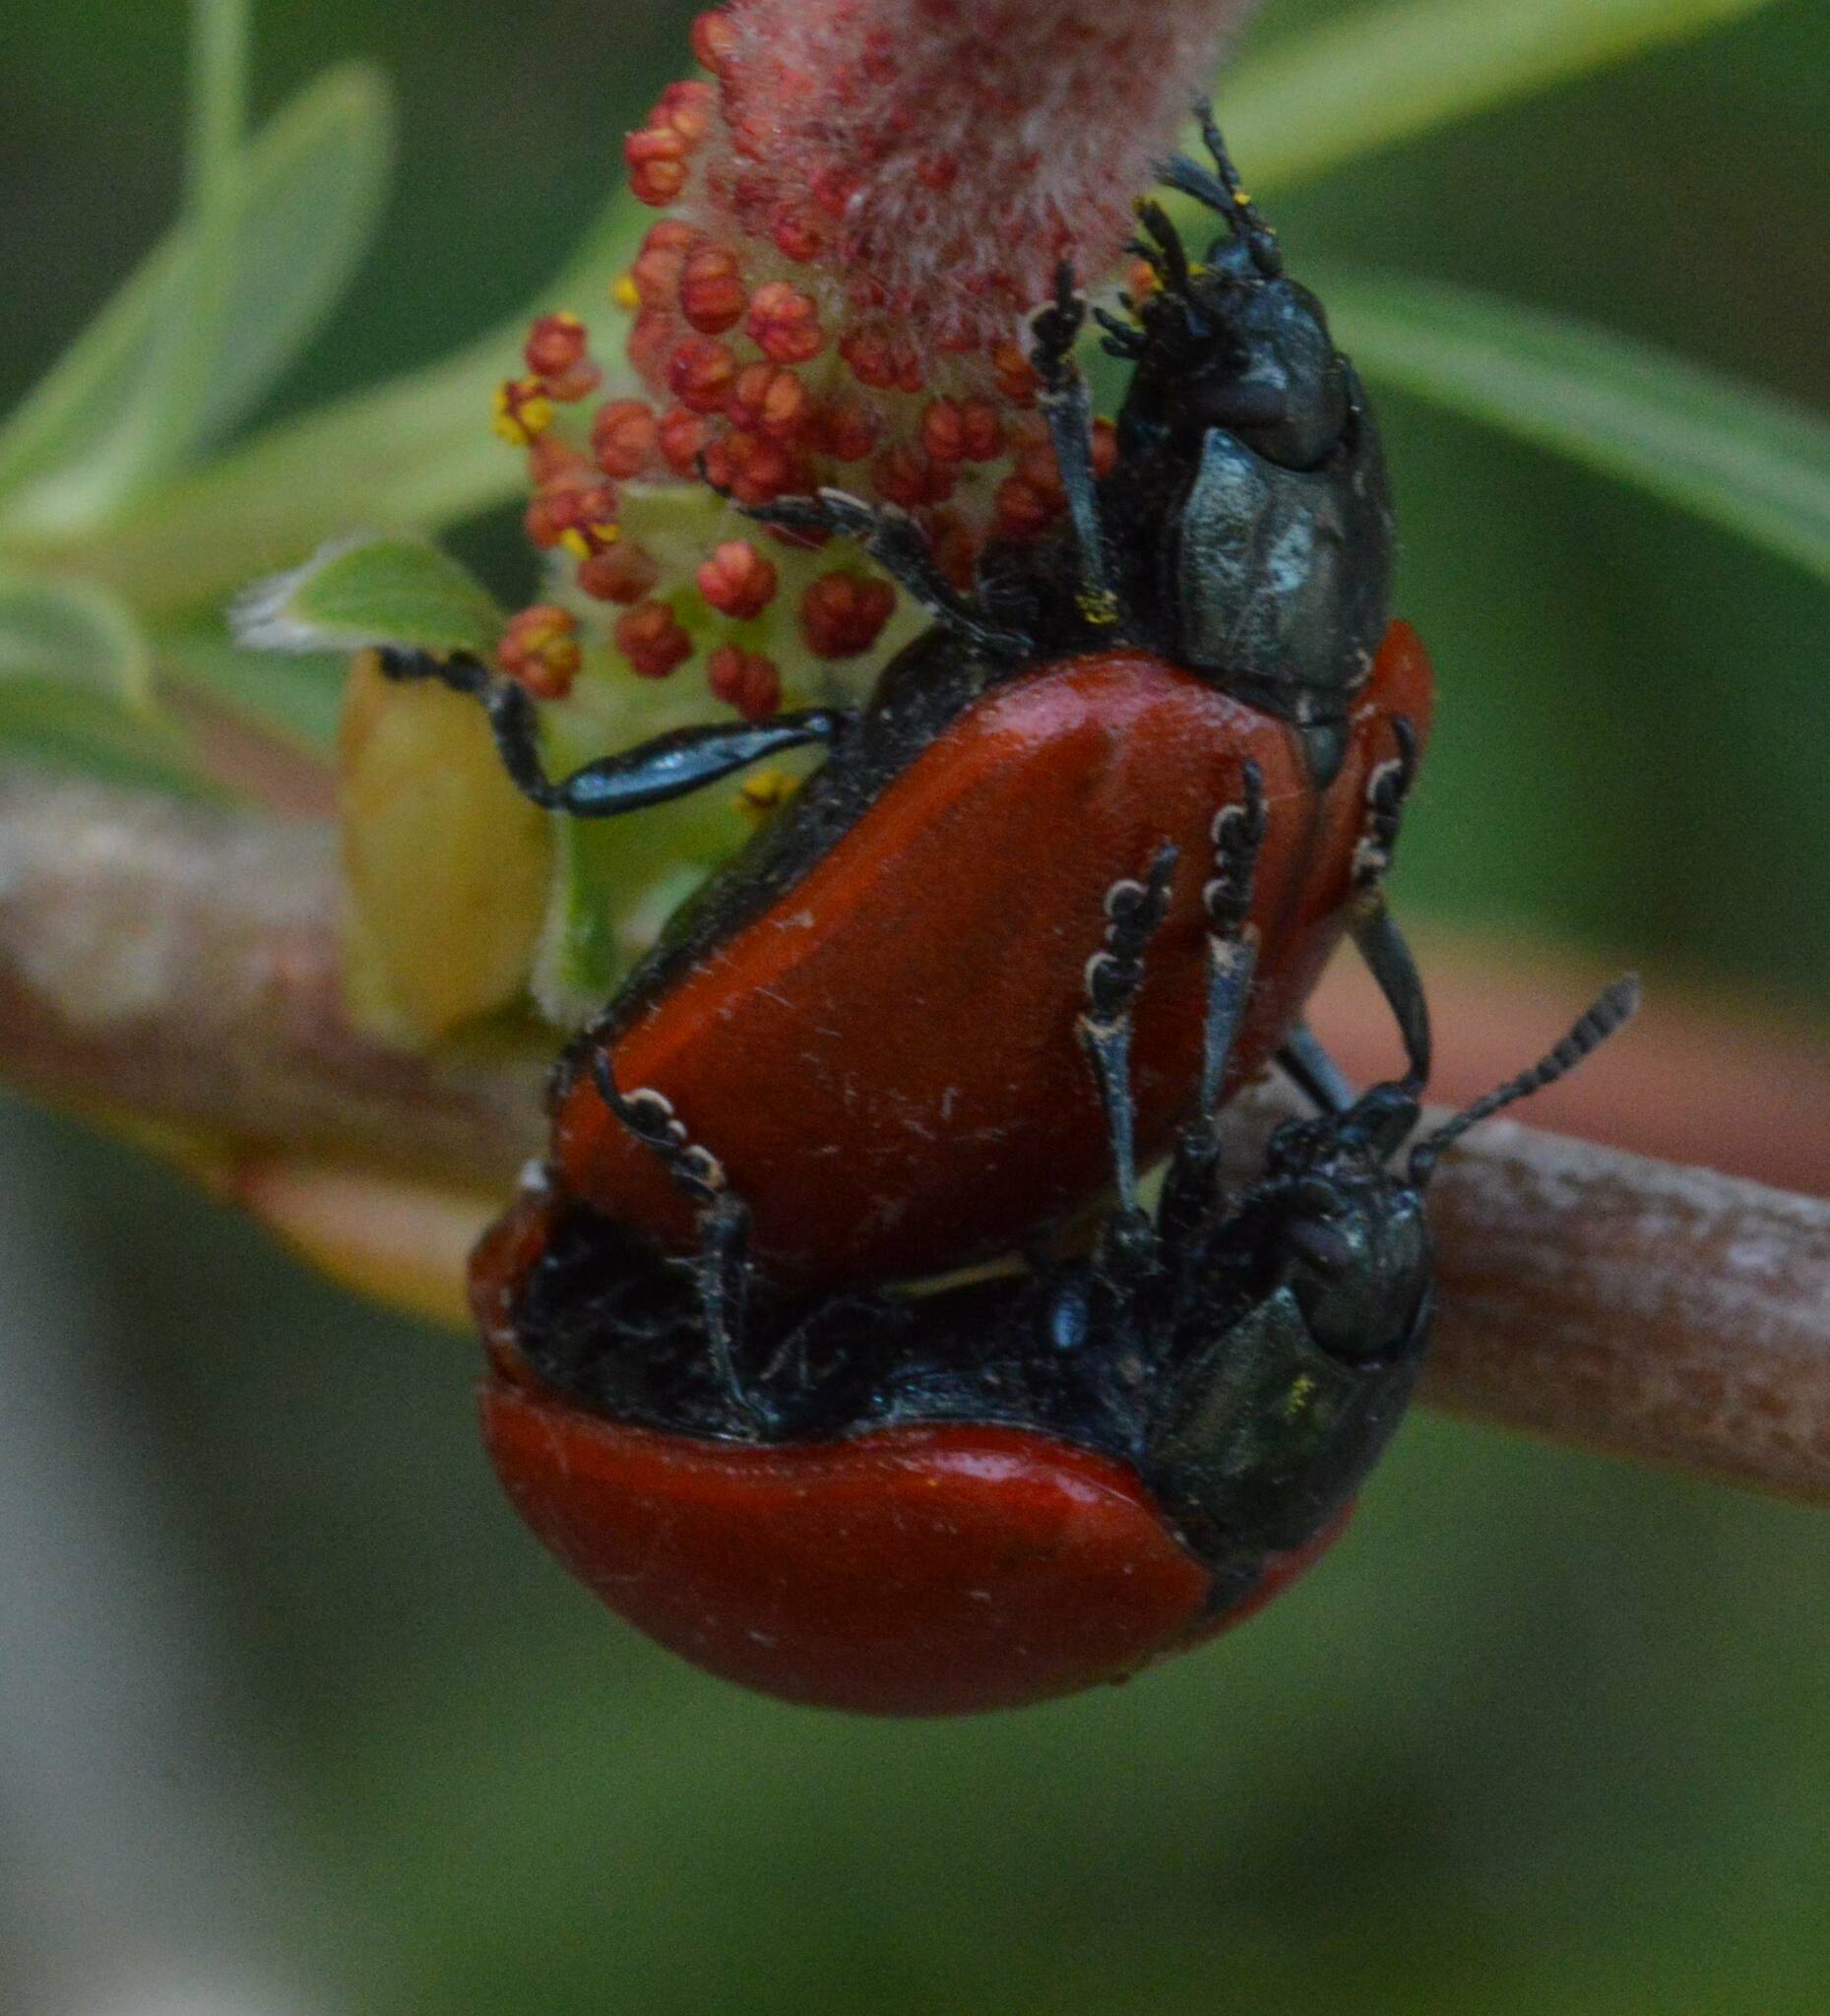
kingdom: Animalia
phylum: Arthropoda
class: Insecta
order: Coleoptera
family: Chrysomelidae
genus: Chrysomela
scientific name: Chrysomela populi
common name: Red poplar leaf beetle
